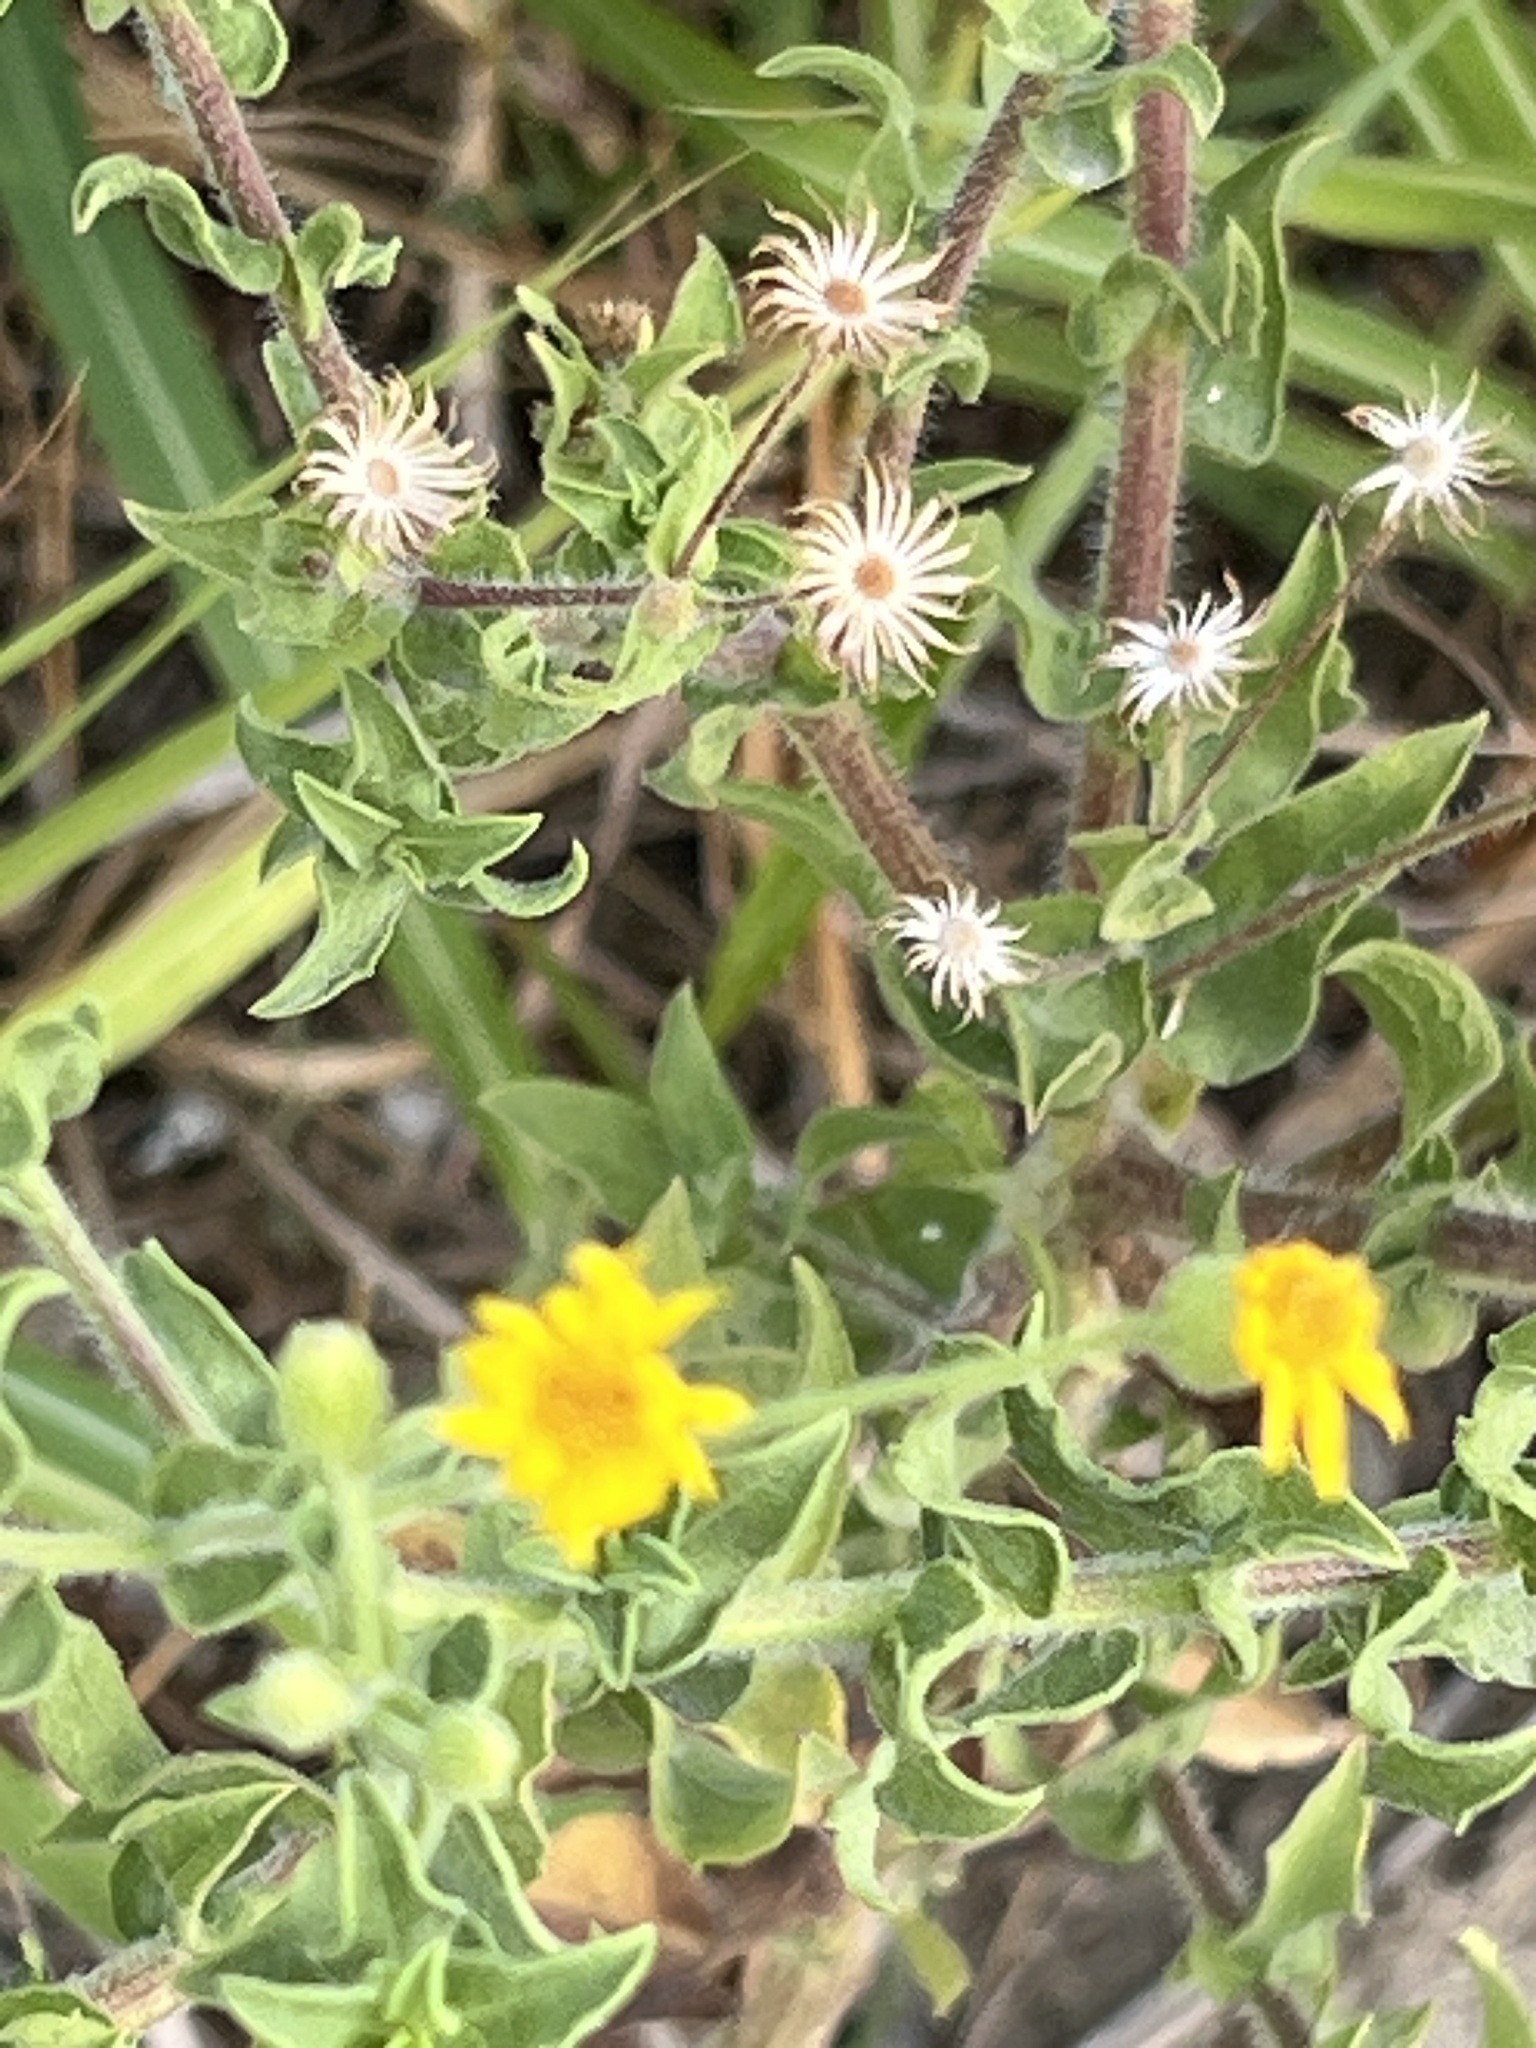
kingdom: Plantae
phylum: Tracheophyta
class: Magnoliopsida
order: Asterales
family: Asteraceae
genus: Heterotheca
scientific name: Heterotheca subaxillaris
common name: Camphorweed
